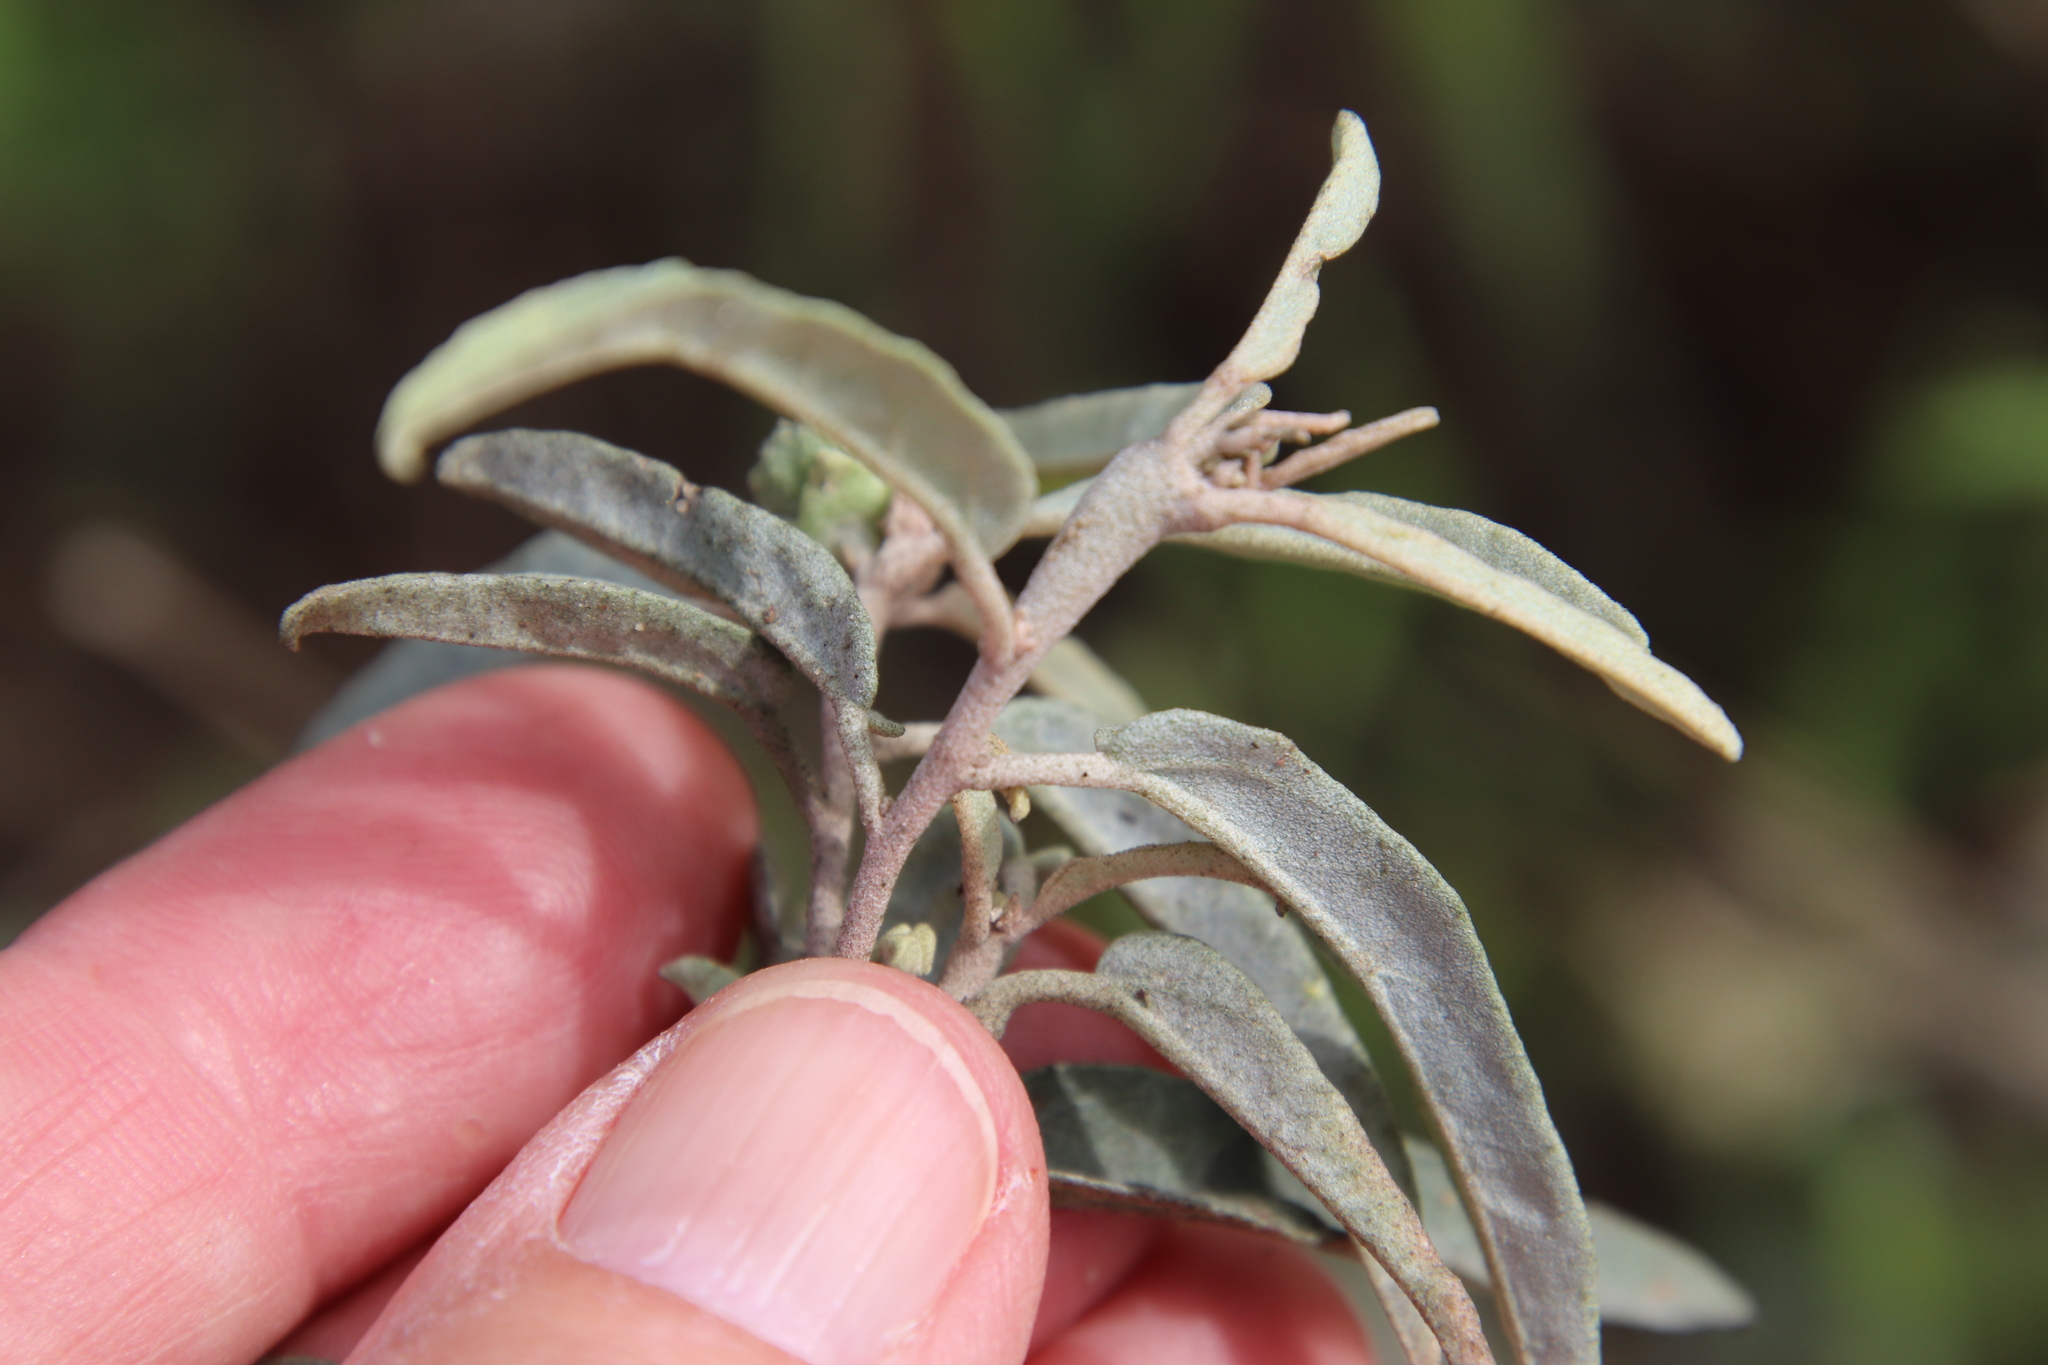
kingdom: Plantae
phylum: Tracheophyta
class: Magnoliopsida
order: Malpighiales
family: Euphorbiaceae
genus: Croton
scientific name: Croton californicus
